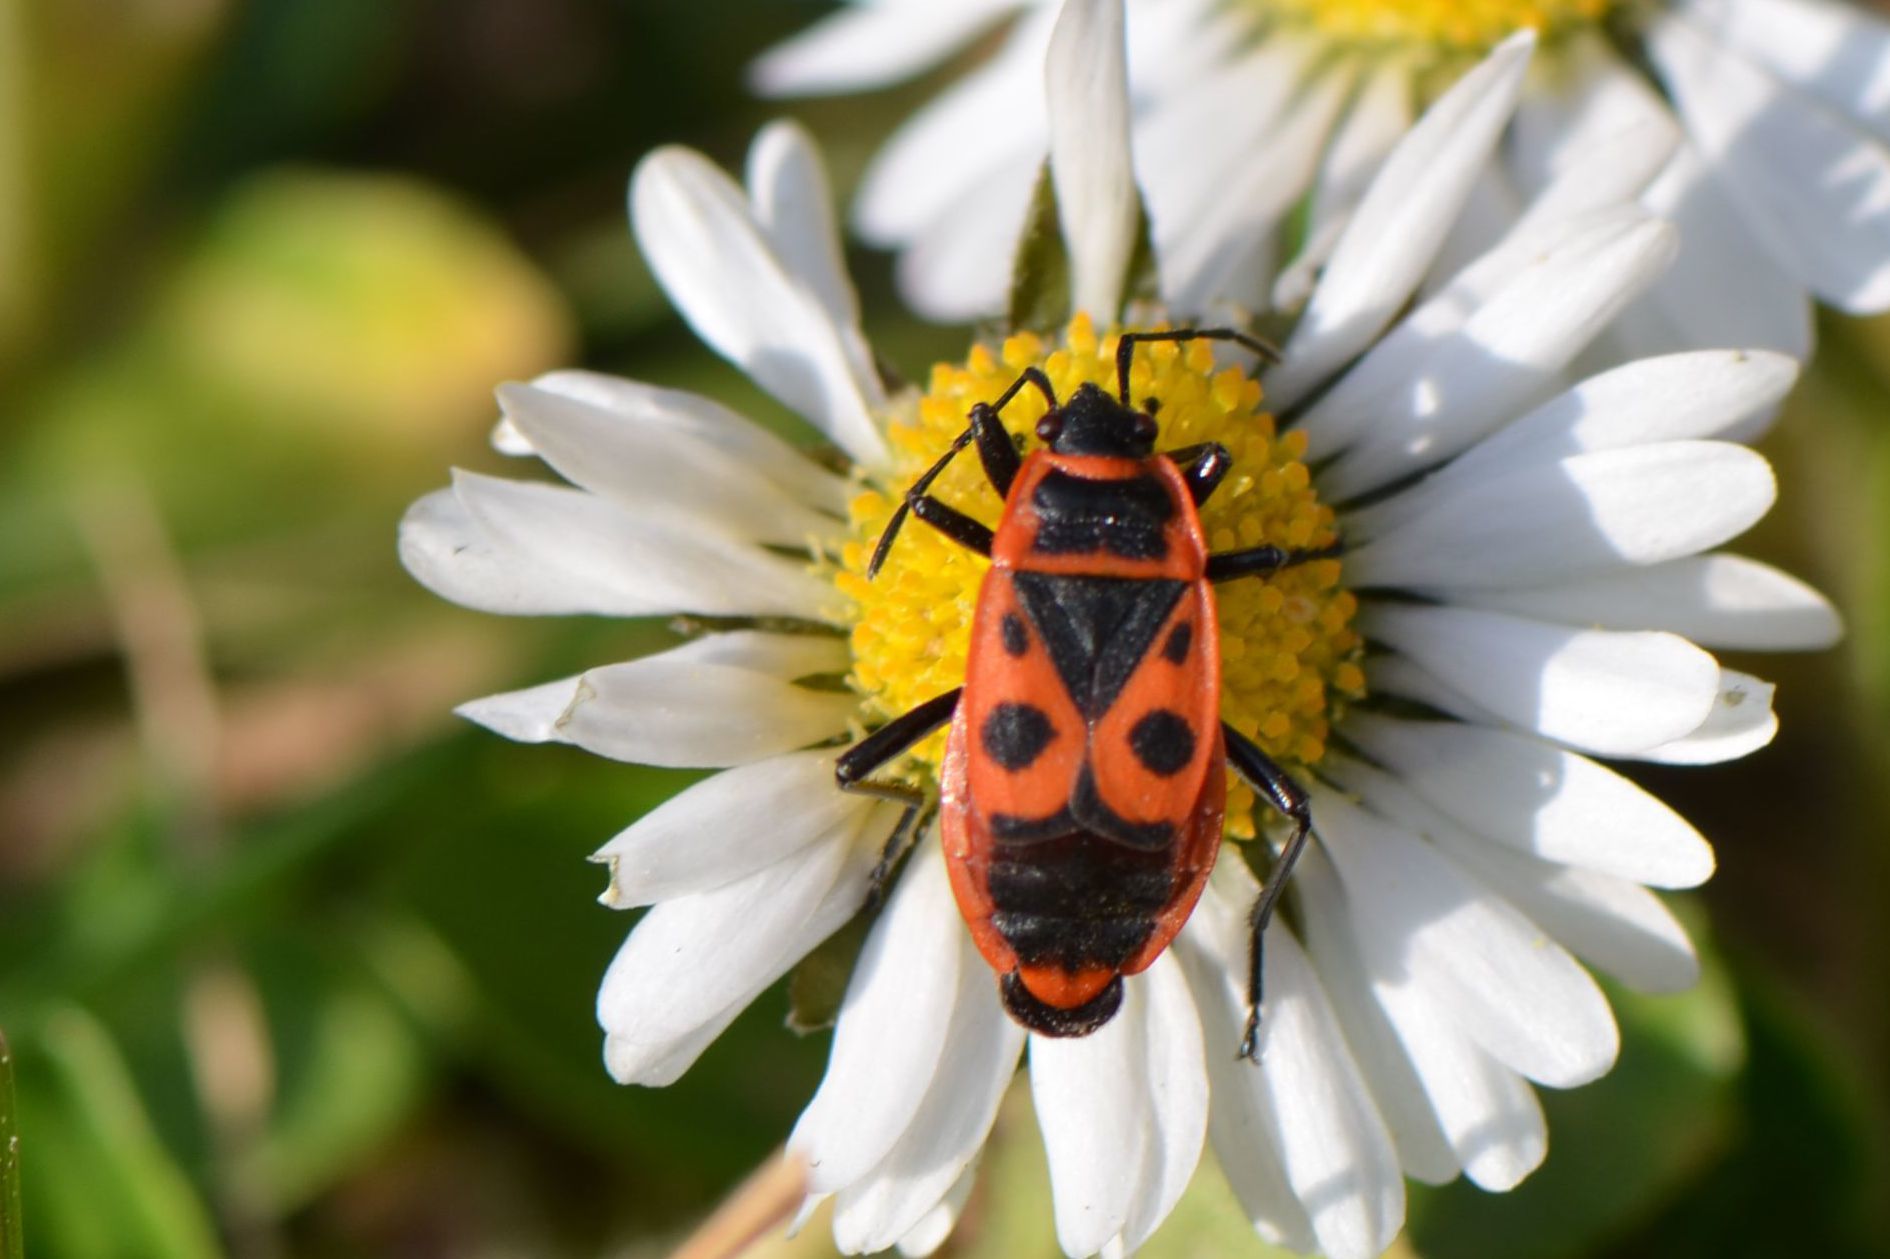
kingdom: Animalia
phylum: Arthropoda
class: Insecta
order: Hemiptera
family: Pyrrhocoridae
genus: Pyrrhocoris
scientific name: Pyrrhocoris apterus
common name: Firebug
